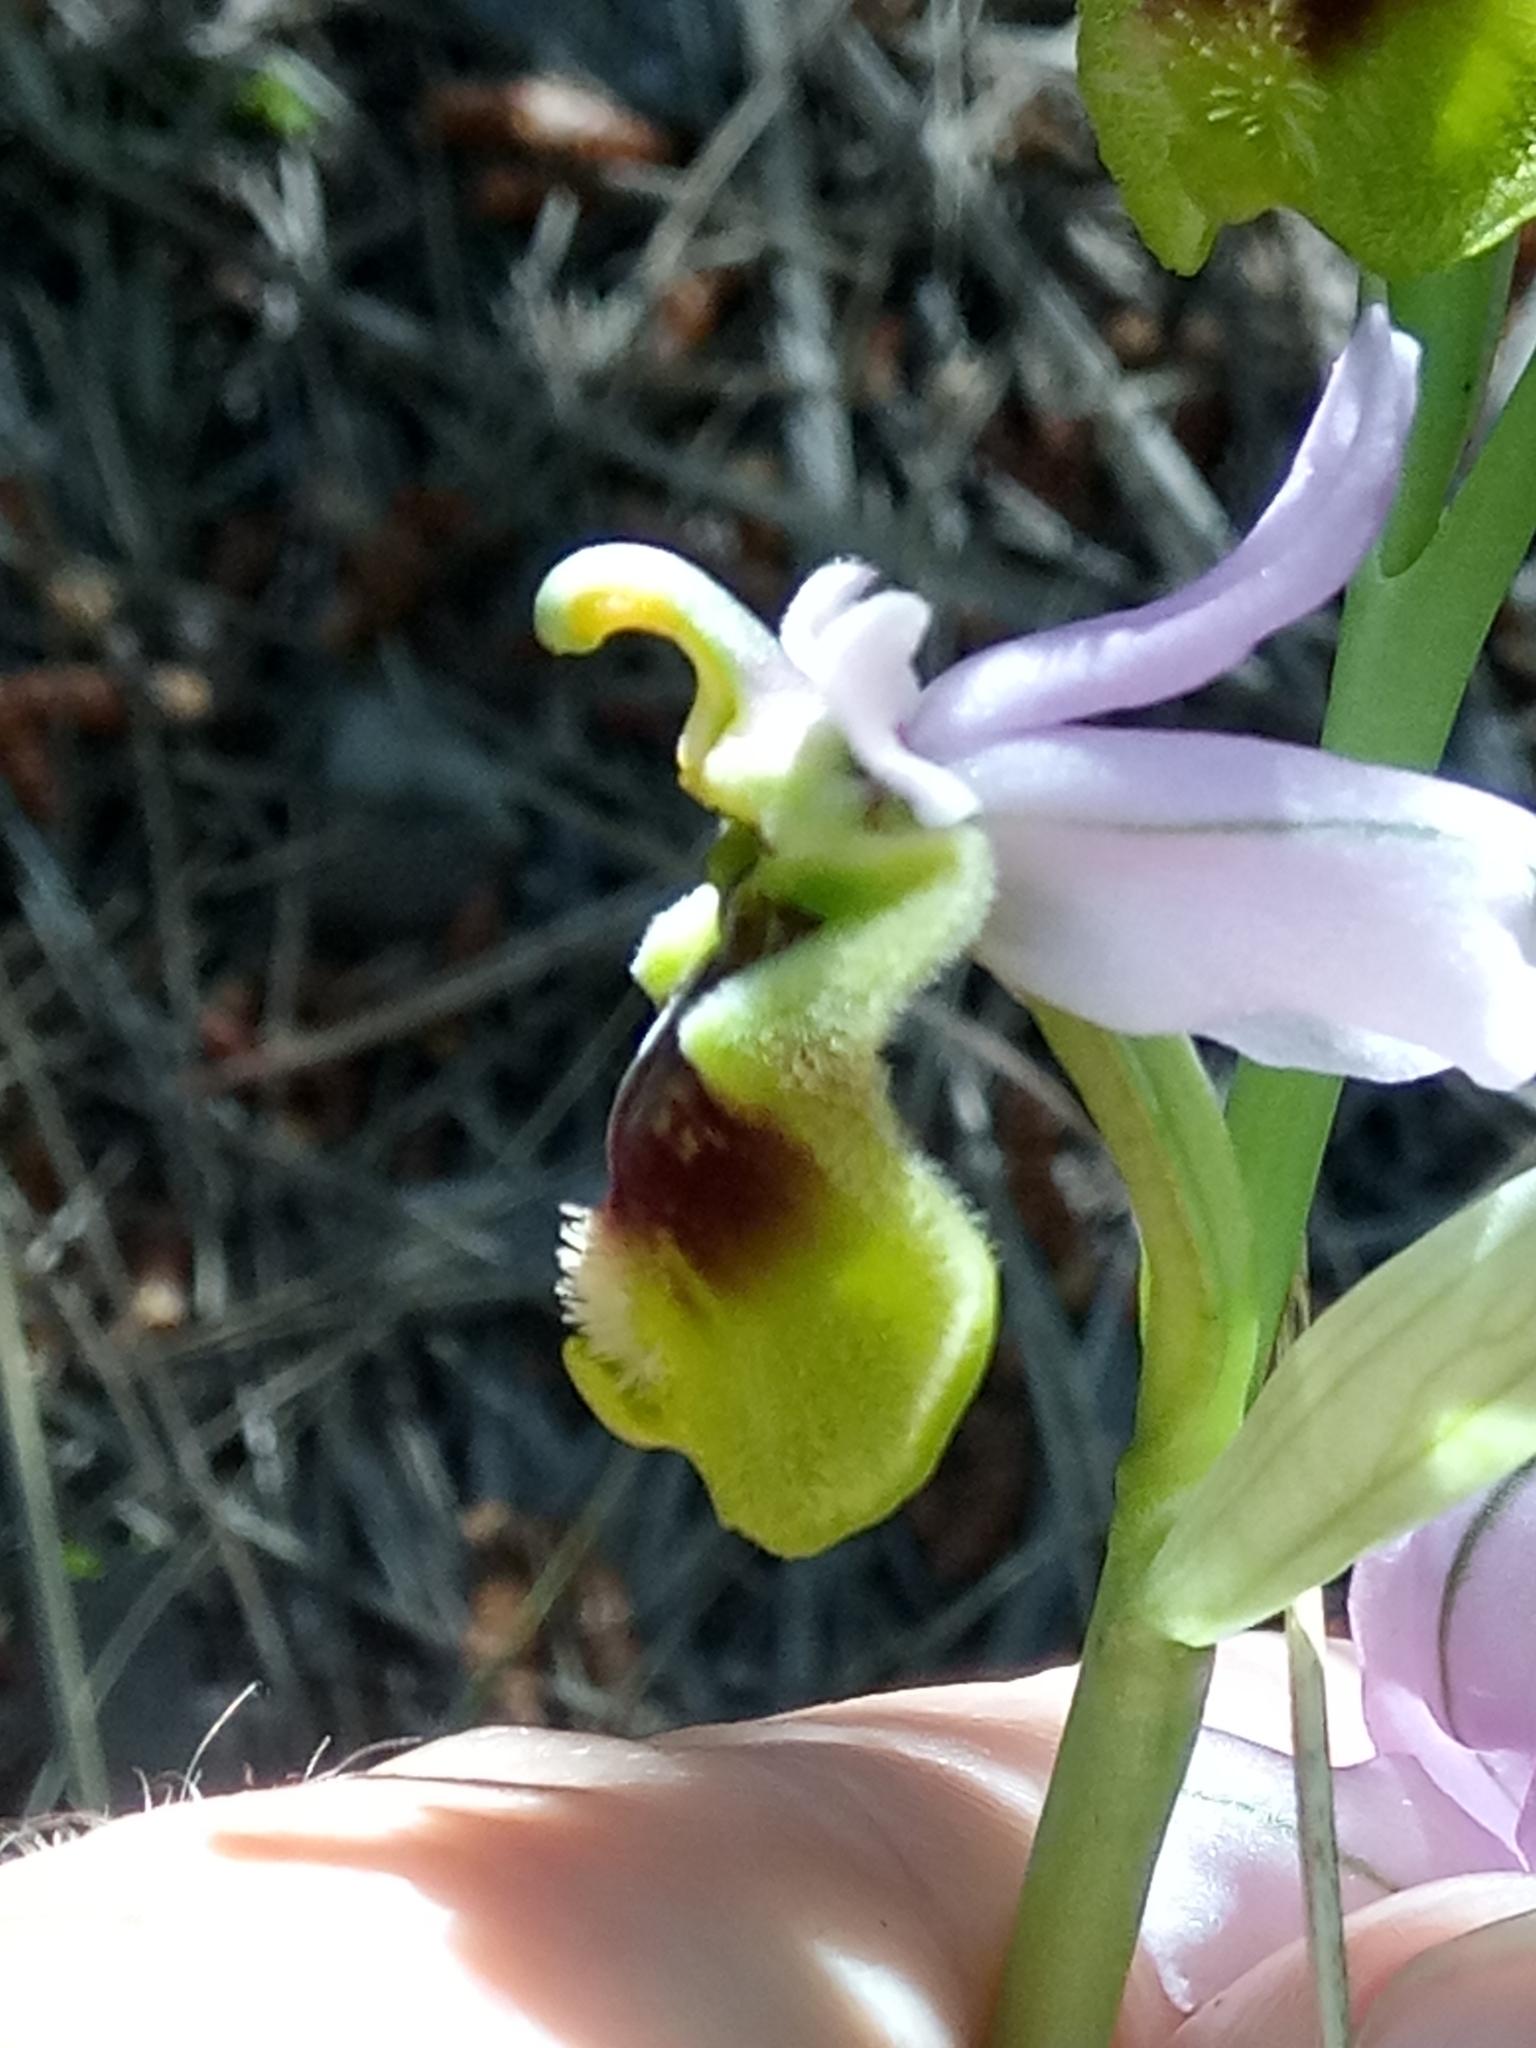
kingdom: Plantae
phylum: Tracheophyta
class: Liliopsida
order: Asparagales
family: Orchidaceae
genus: Ophrys
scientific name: Ophrys tenthredinifera
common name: Sawfly orchid
